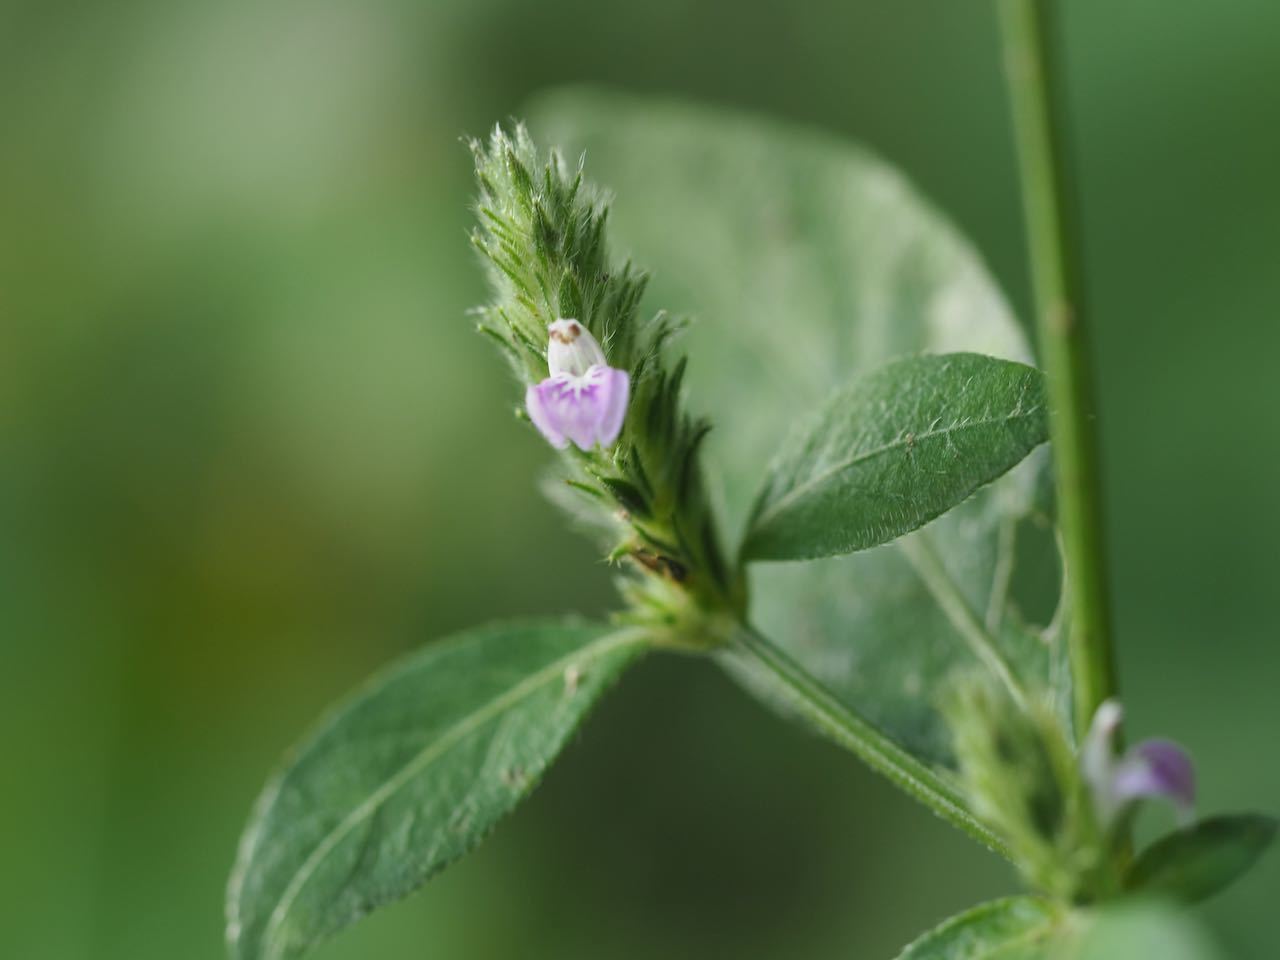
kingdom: Plantae
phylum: Tracheophyta
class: Magnoliopsida
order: Lamiales
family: Acanthaceae
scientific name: Acanthaceae
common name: Acanthaceae
